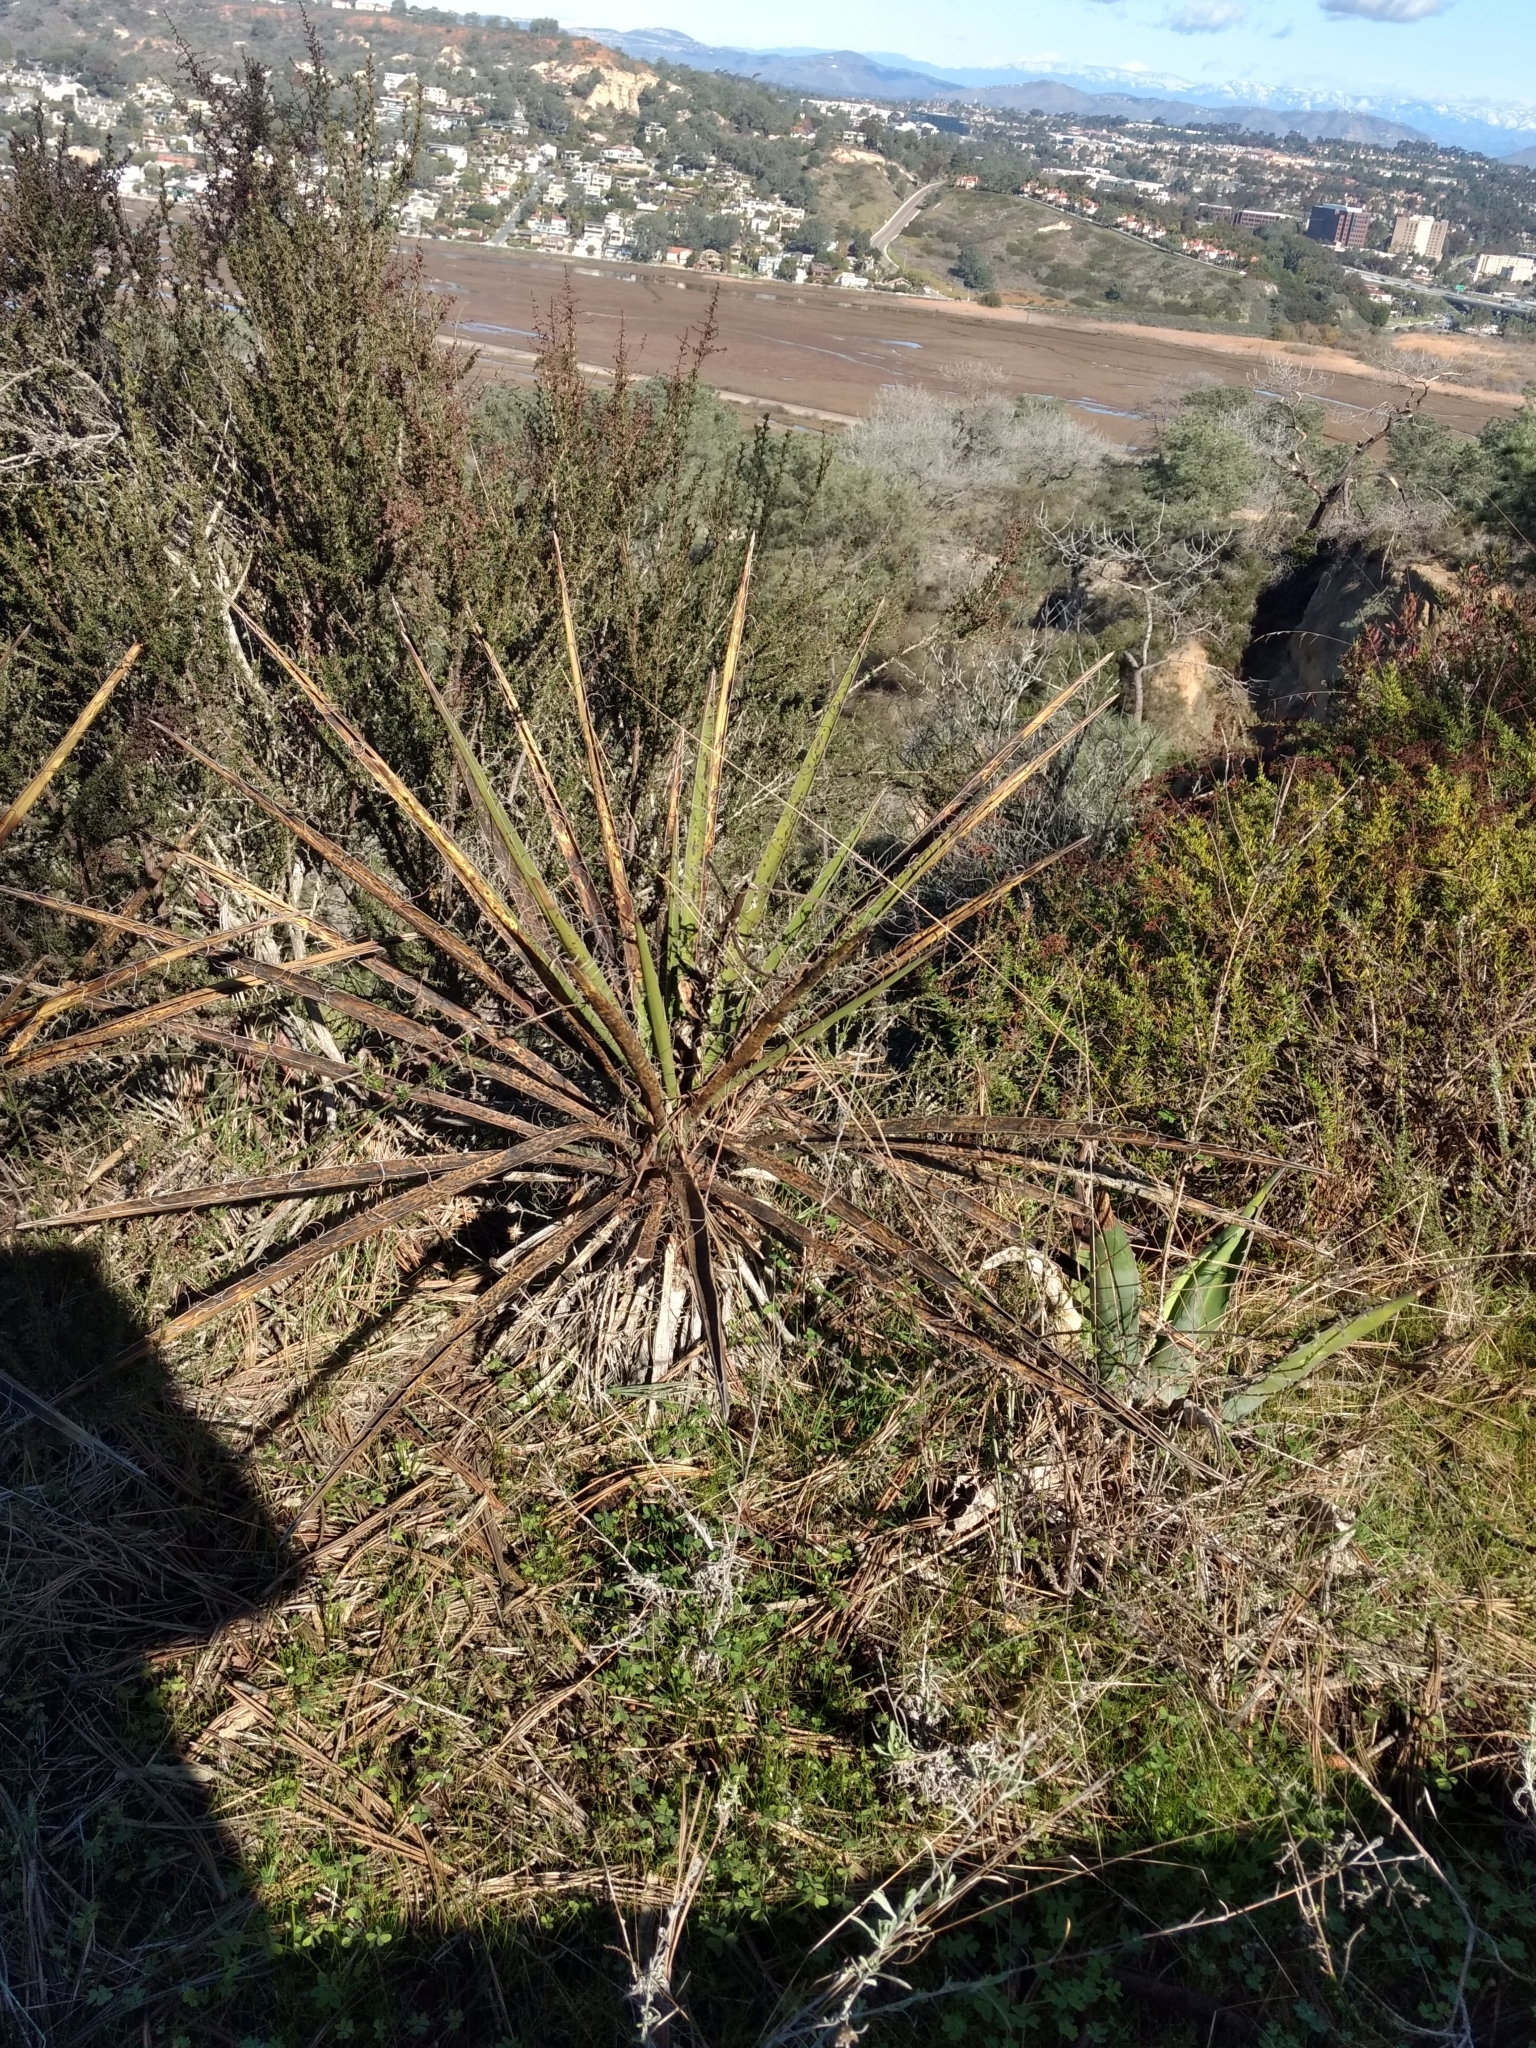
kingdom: Plantae
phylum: Tracheophyta
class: Liliopsida
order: Asparagales
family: Asparagaceae
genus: Yucca
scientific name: Yucca schidigera
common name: Mojave yucca
